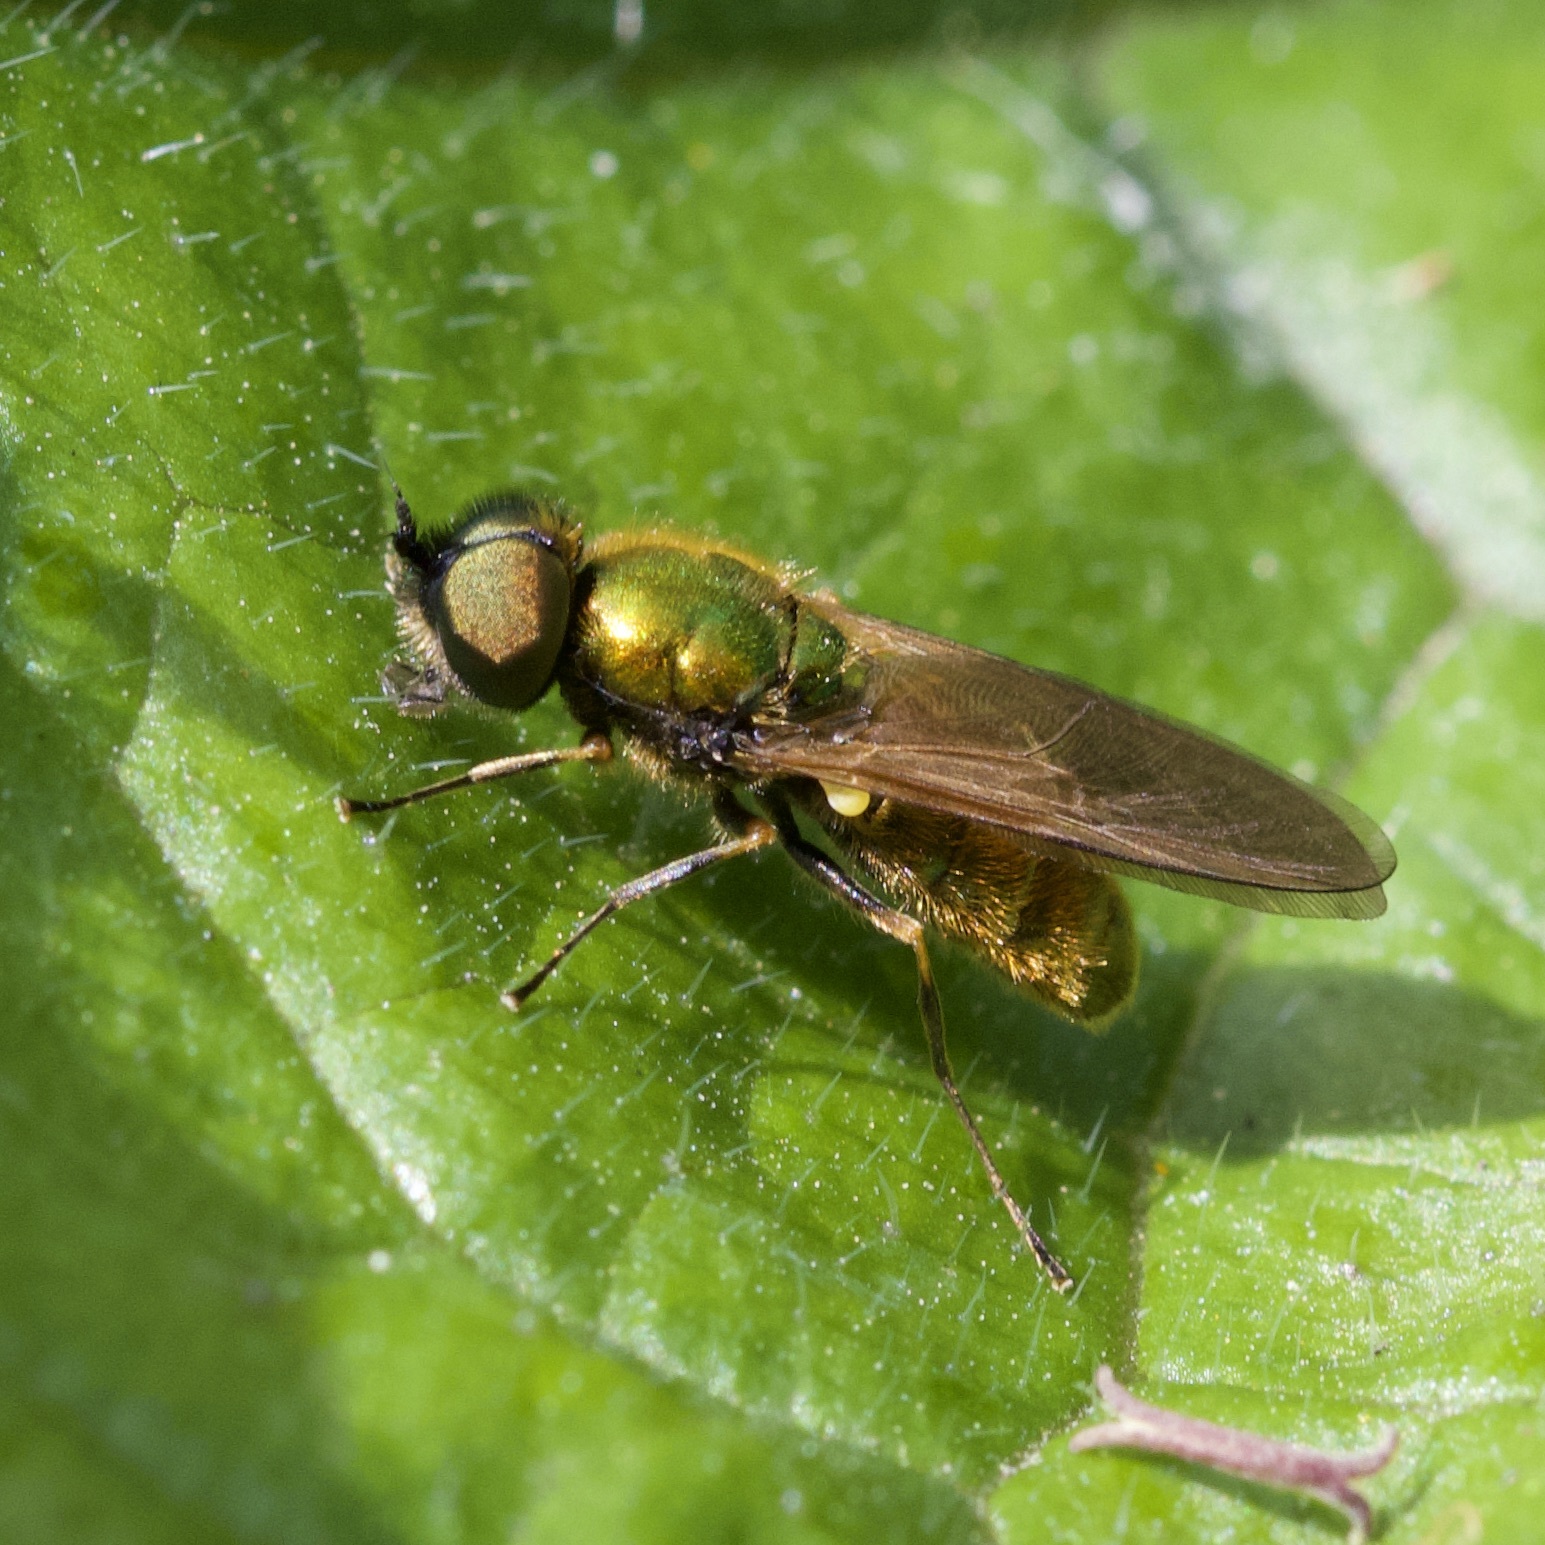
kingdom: Animalia
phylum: Arthropoda
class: Insecta
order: Diptera
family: Stratiomyidae
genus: Chloromyia
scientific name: Chloromyia formosa
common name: Soldier fly
